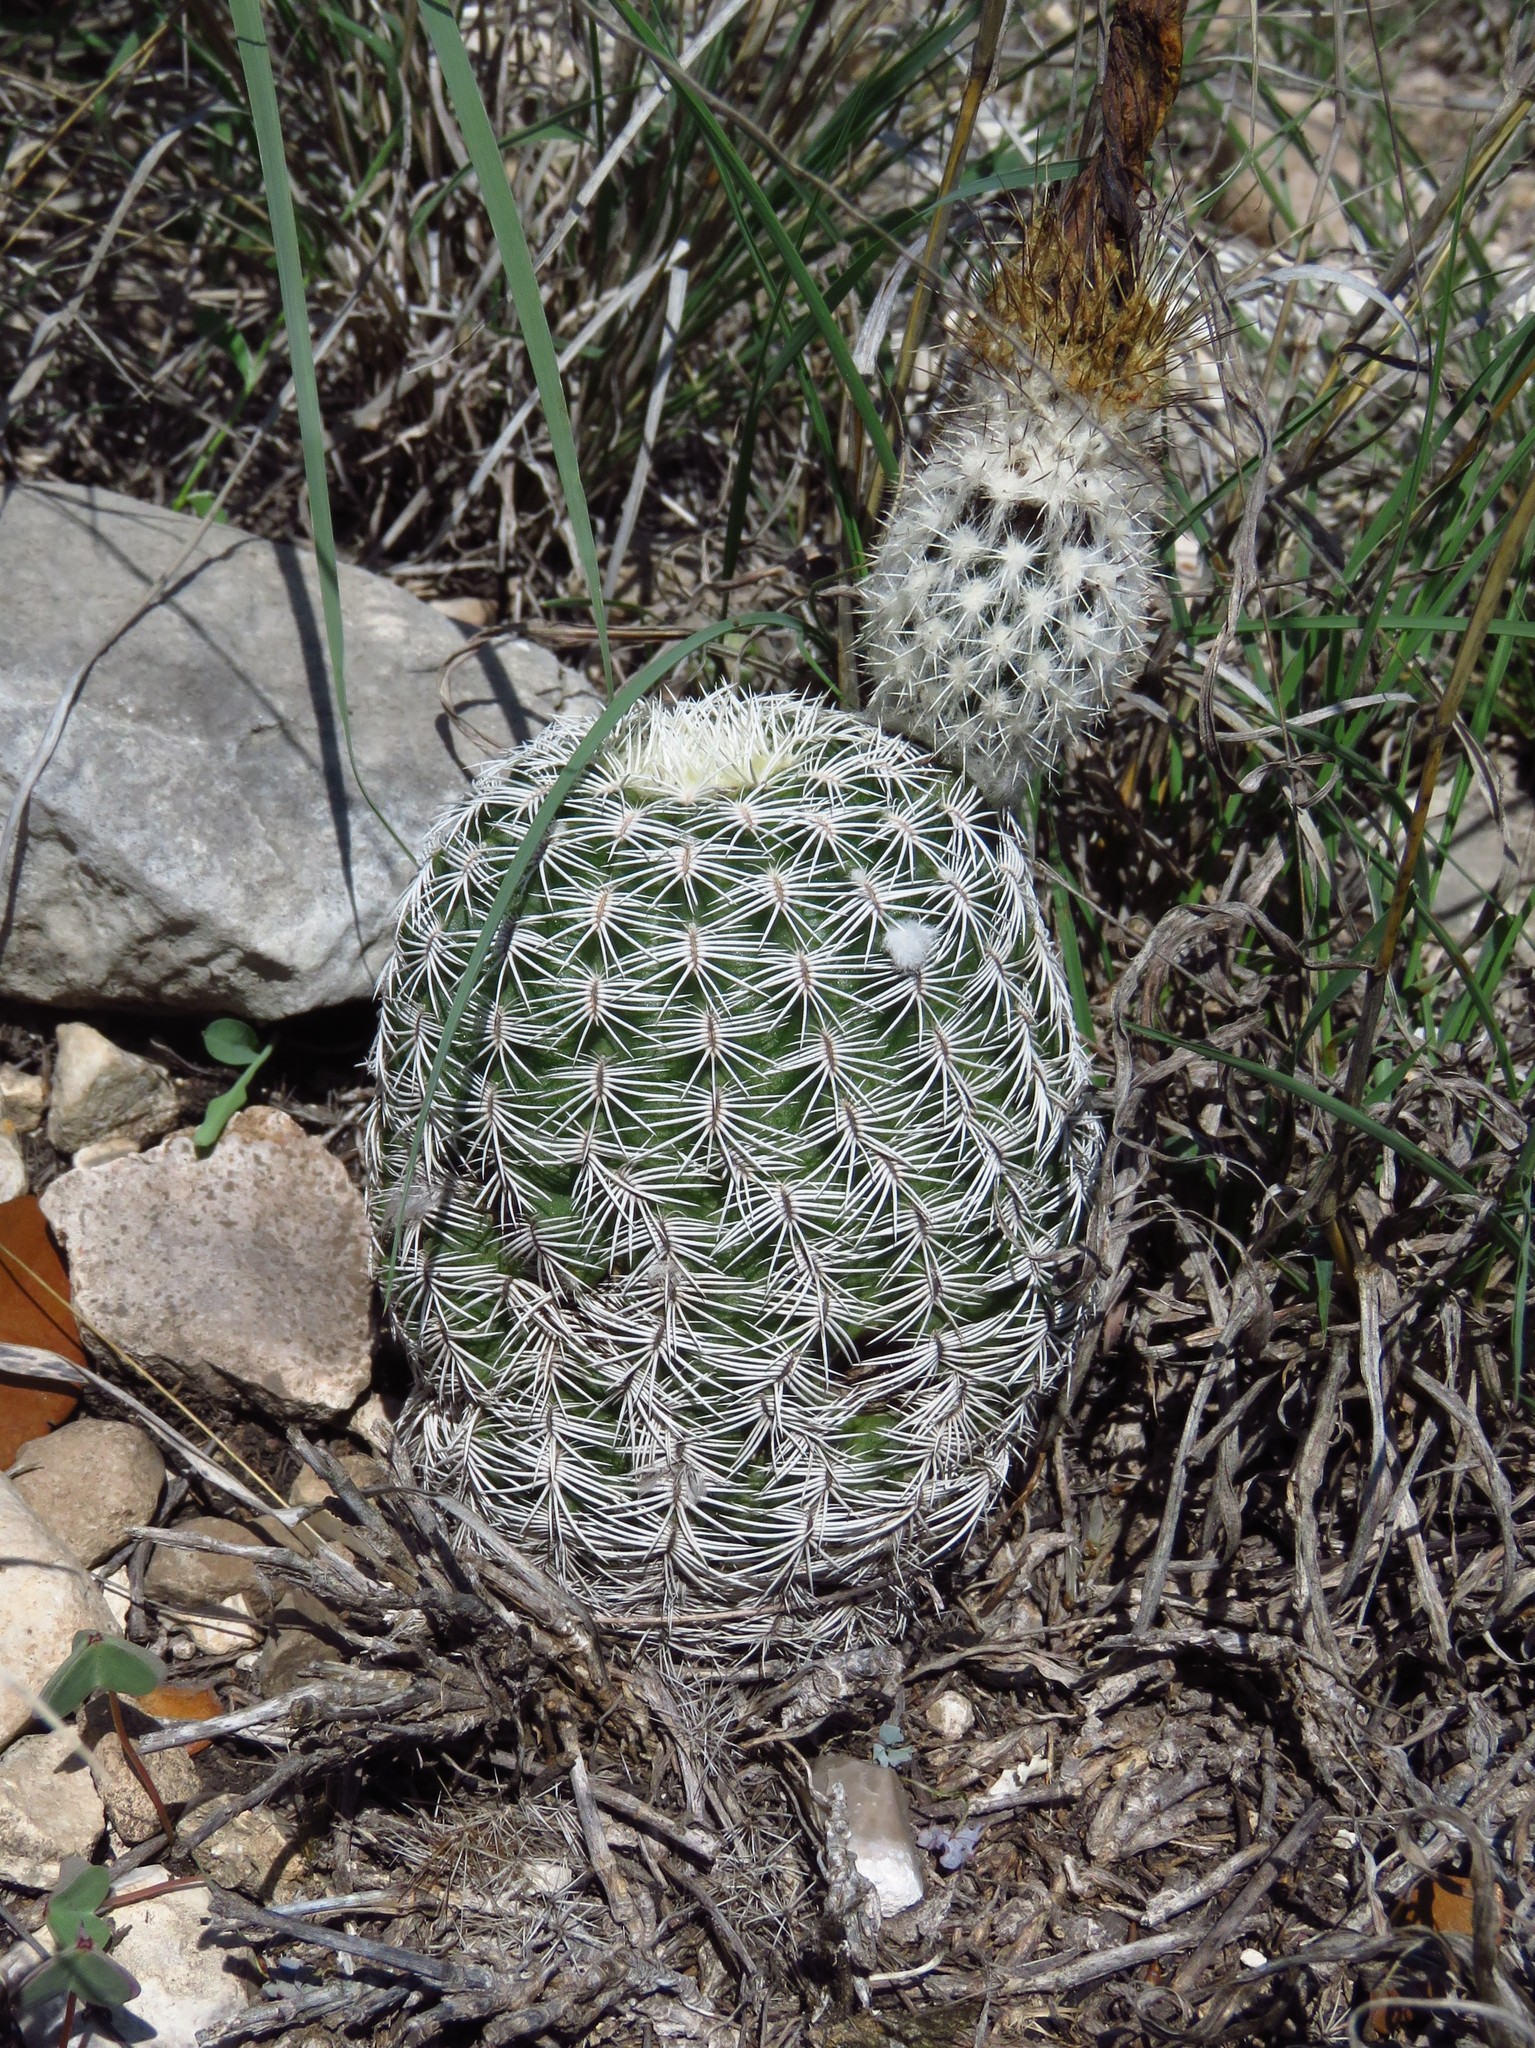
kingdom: Plantae
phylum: Tracheophyta
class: Magnoliopsida
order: Caryophyllales
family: Cactaceae
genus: Echinocereus
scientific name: Echinocereus reichenbachii
